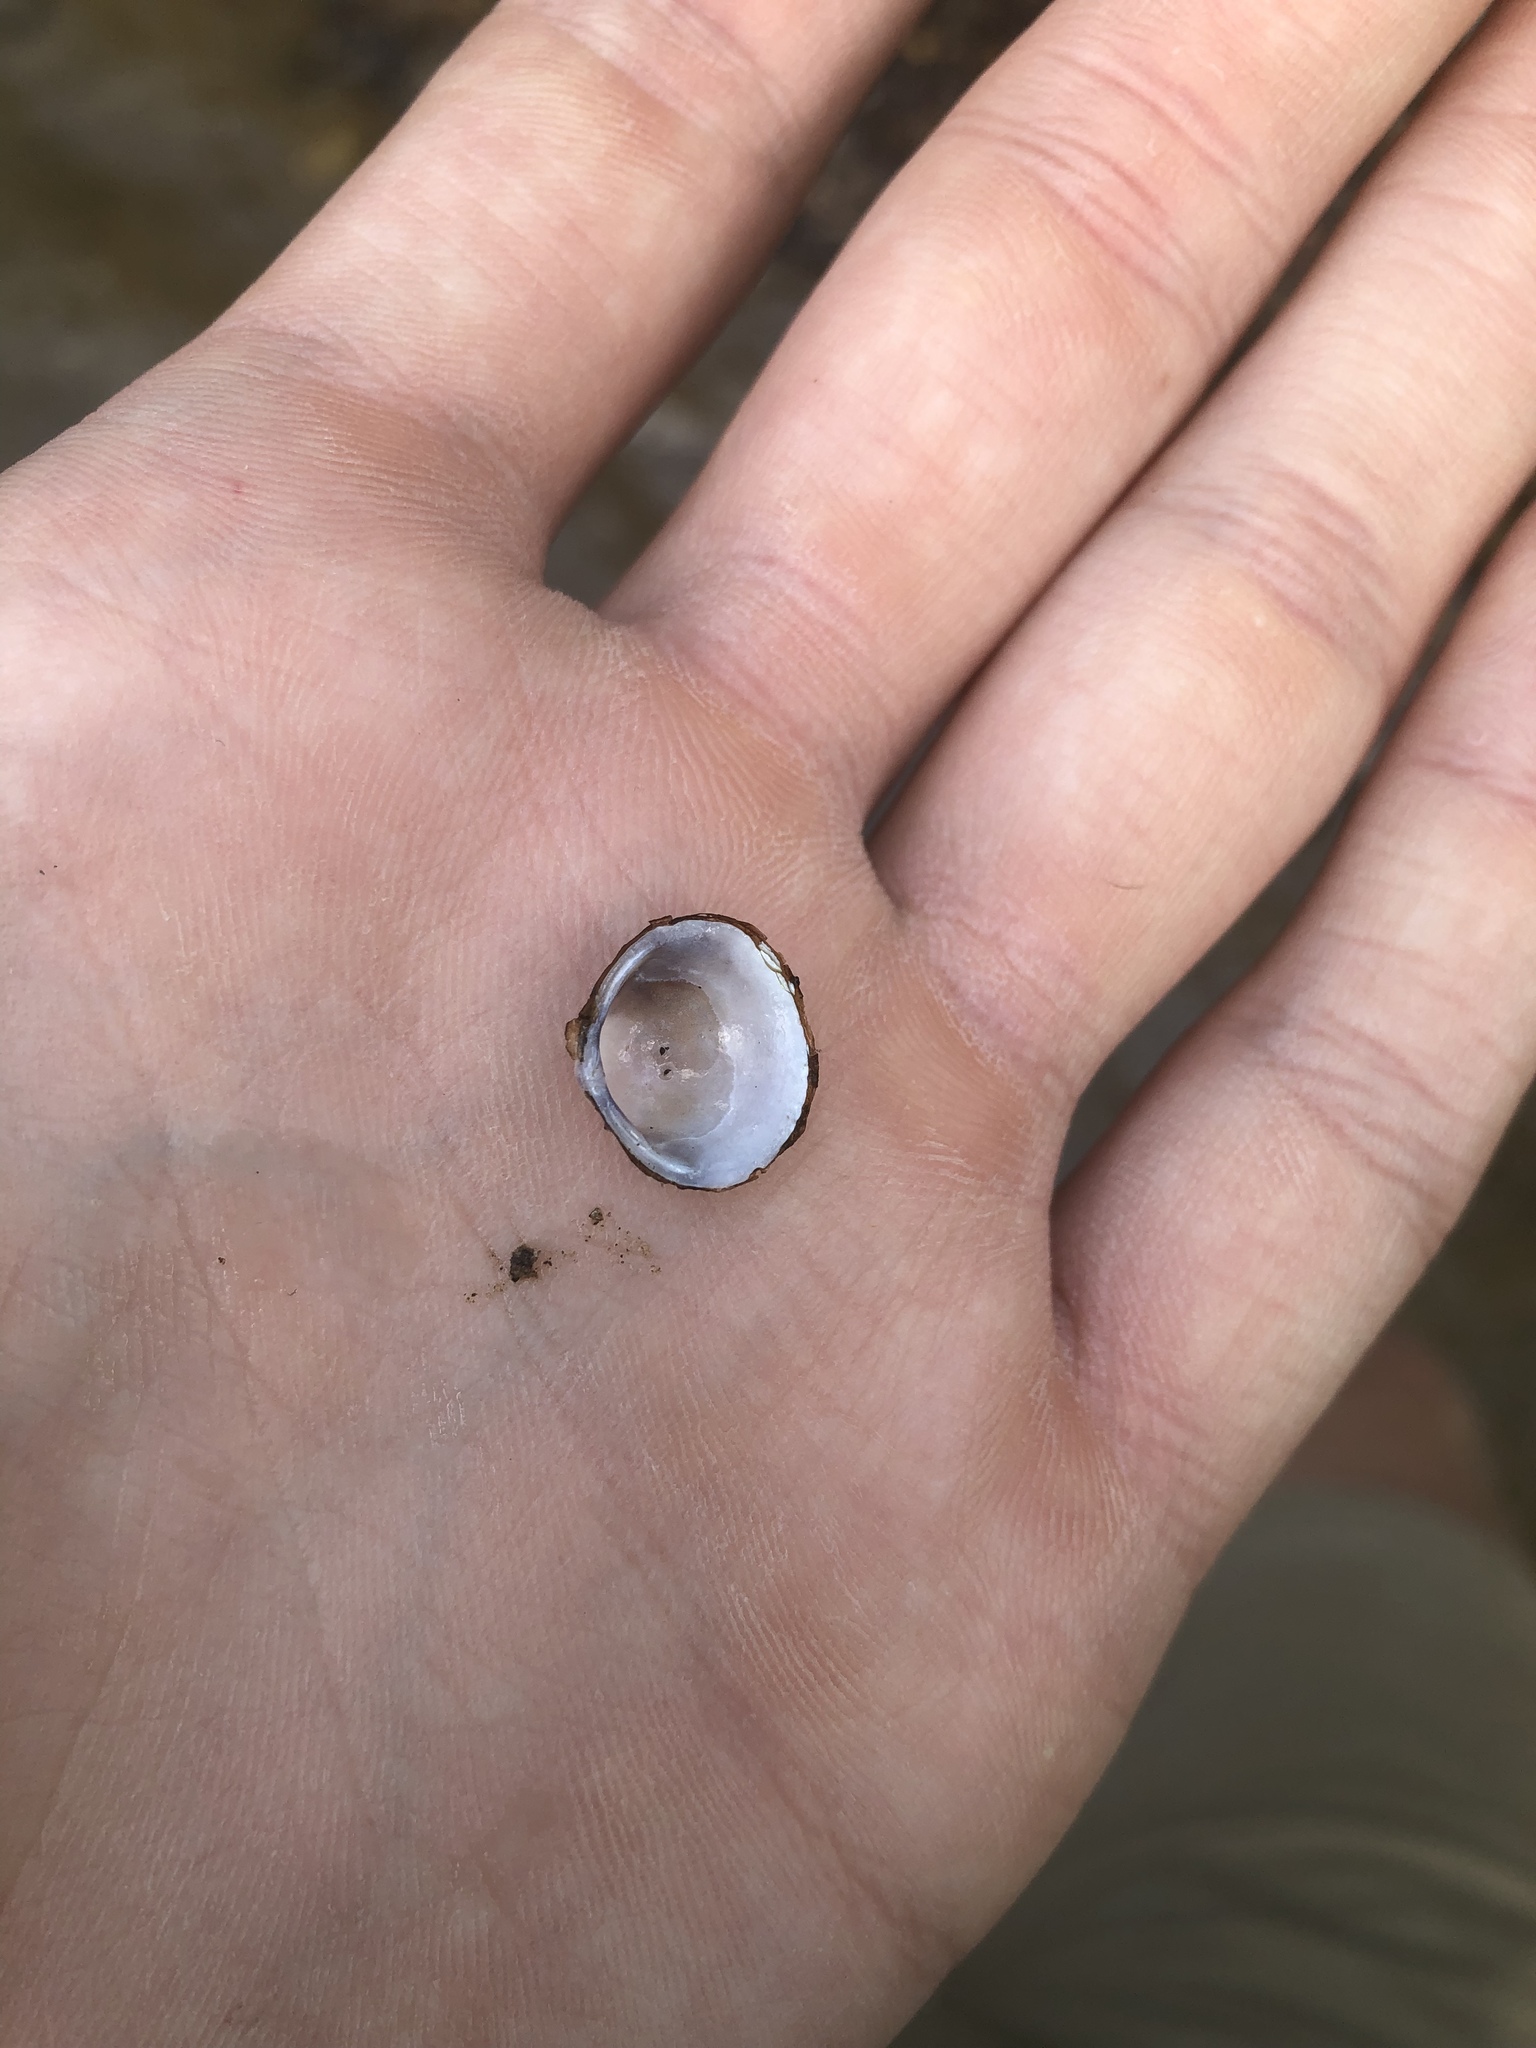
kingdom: Animalia
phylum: Mollusca
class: Bivalvia
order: Venerida
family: Cyrenidae
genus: Corbicula
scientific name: Corbicula fluminea
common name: Asian clam
